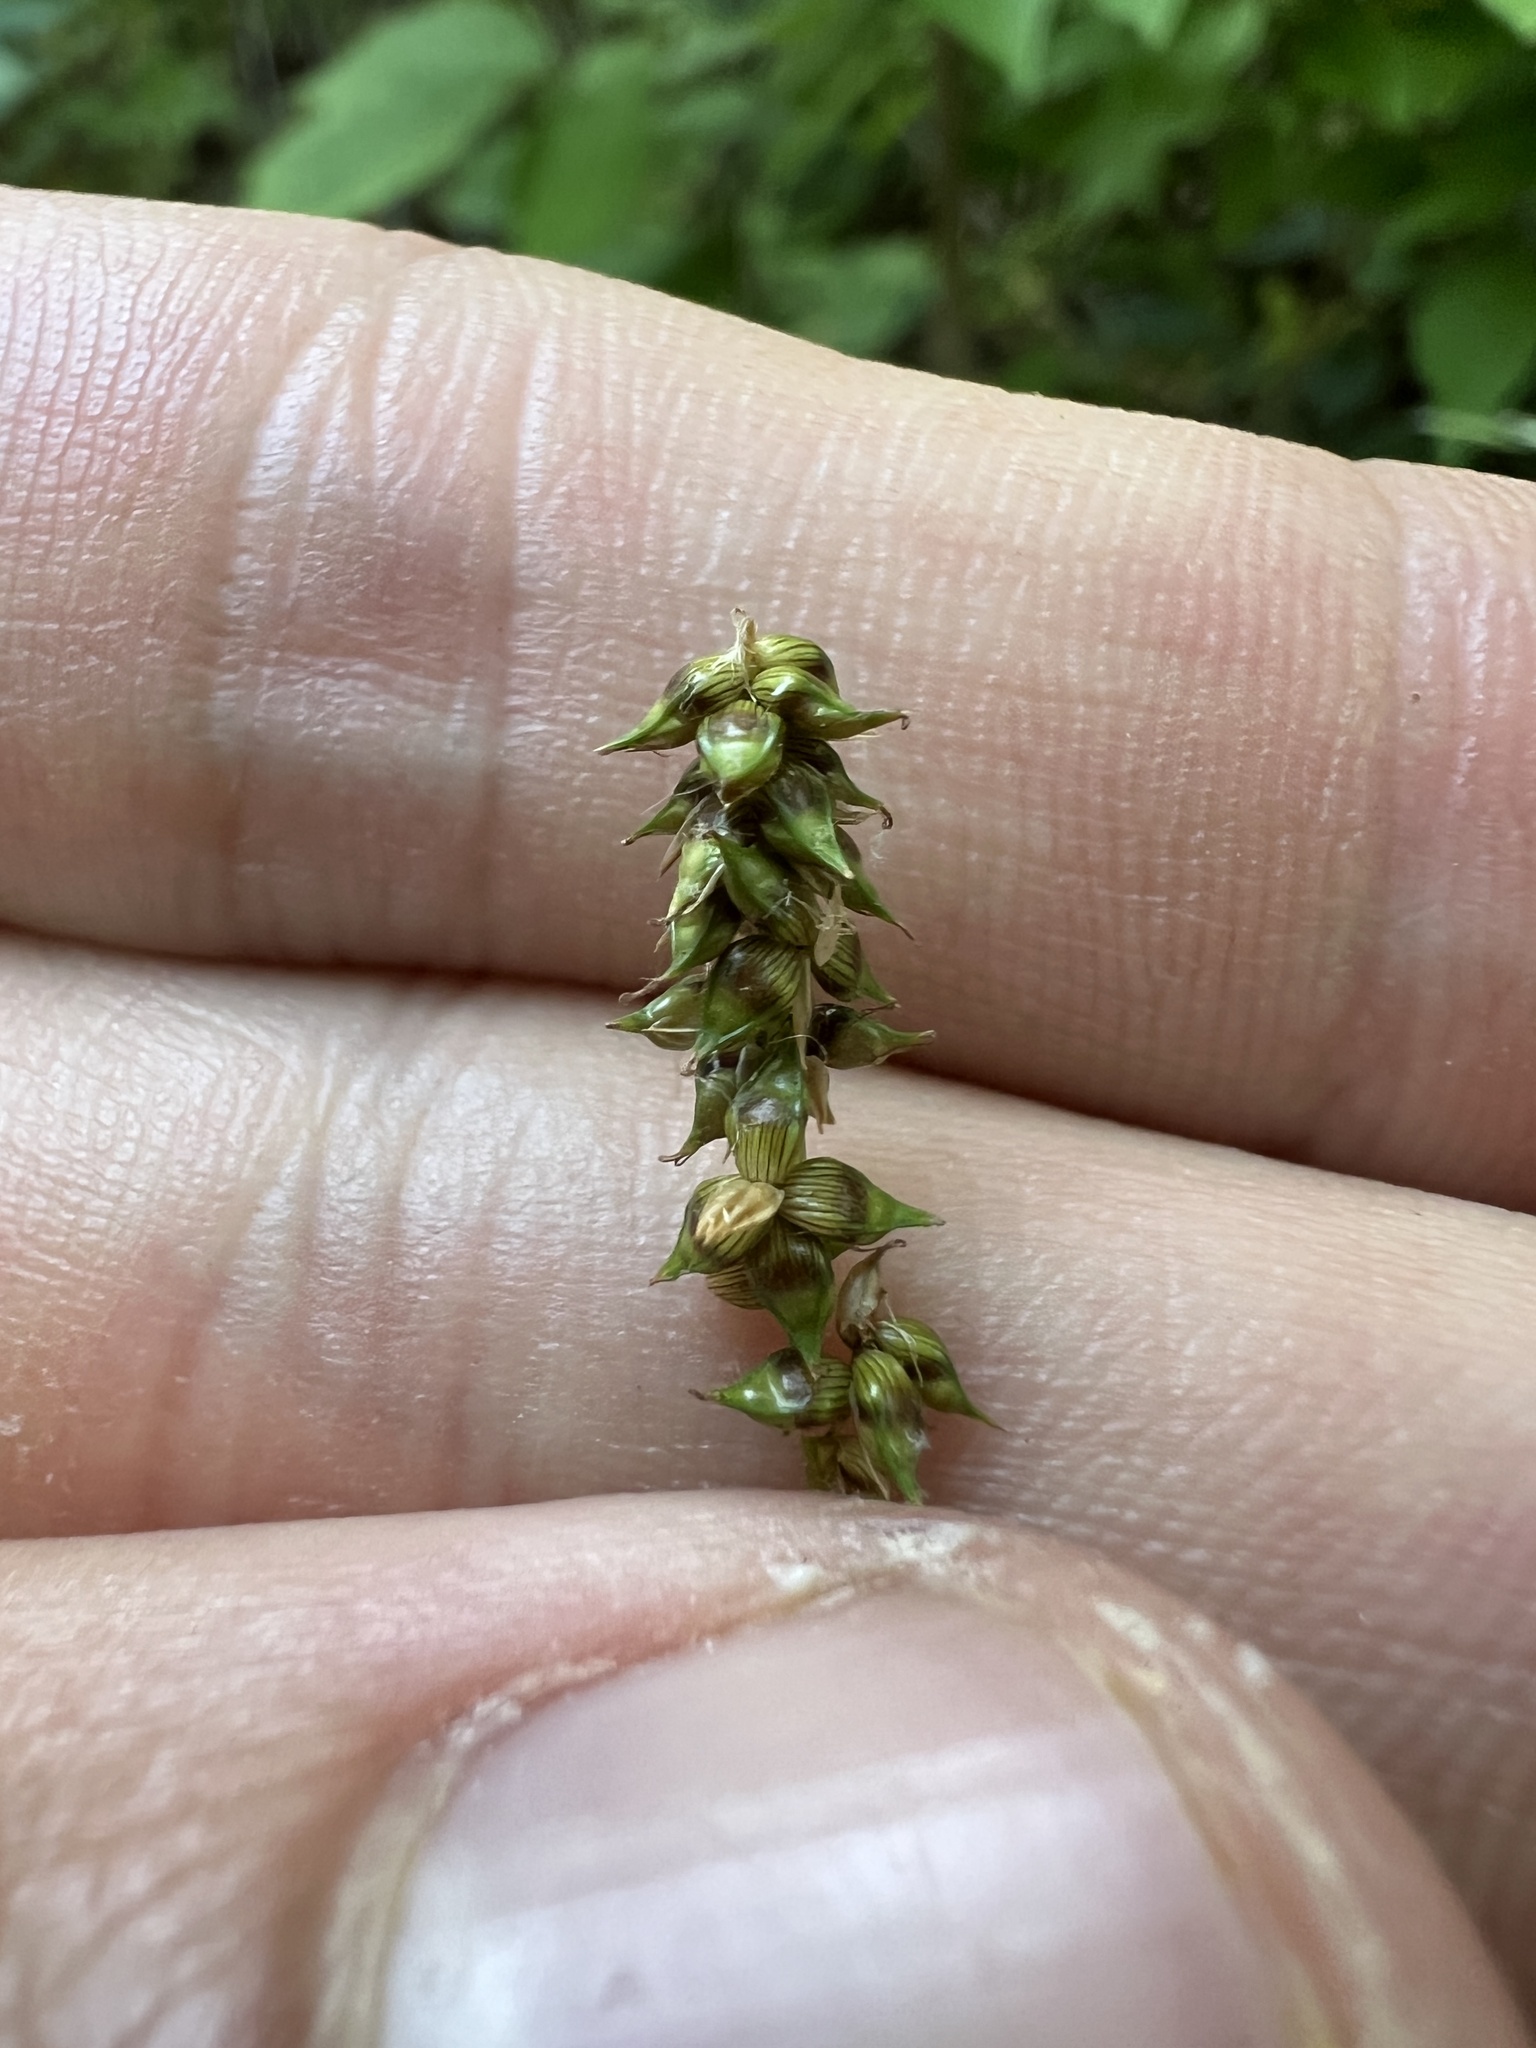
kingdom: Plantae
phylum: Tracheophyta
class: Liliopsida
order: Poales
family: Cyperaceae
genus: Carex
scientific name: Carex retroflexa
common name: Reflexed sedge
